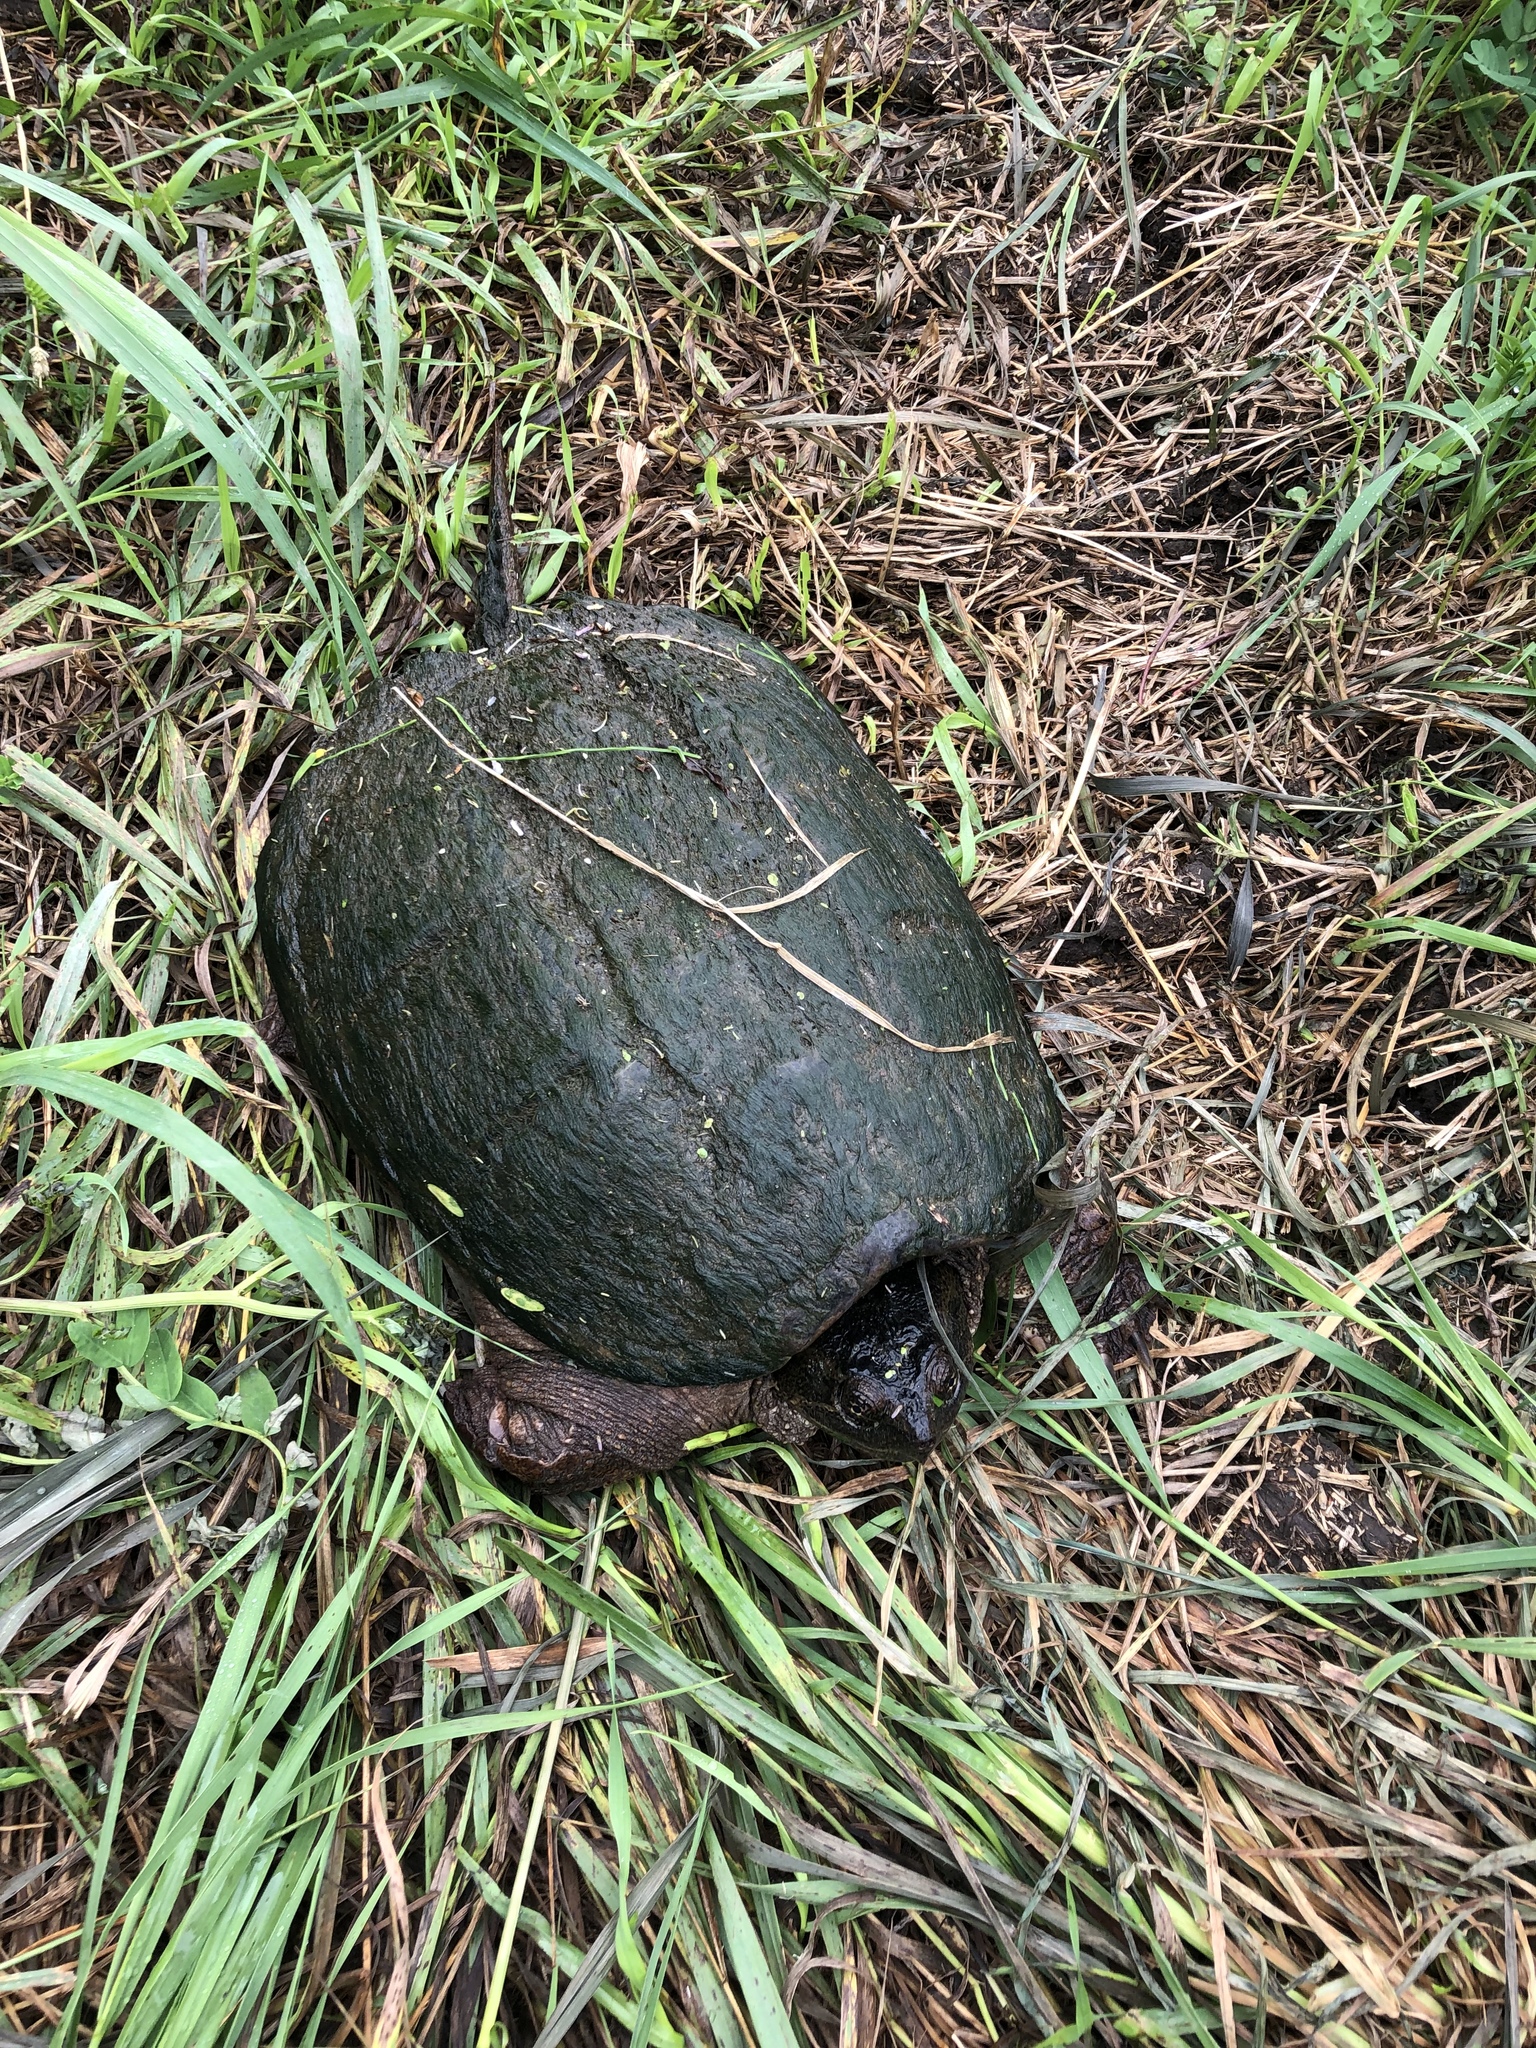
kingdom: Animalia
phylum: Chordata
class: Testudines
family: Chelydridae
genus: Chelydra
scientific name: Chelydra serpentina
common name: Common snapping turtle
